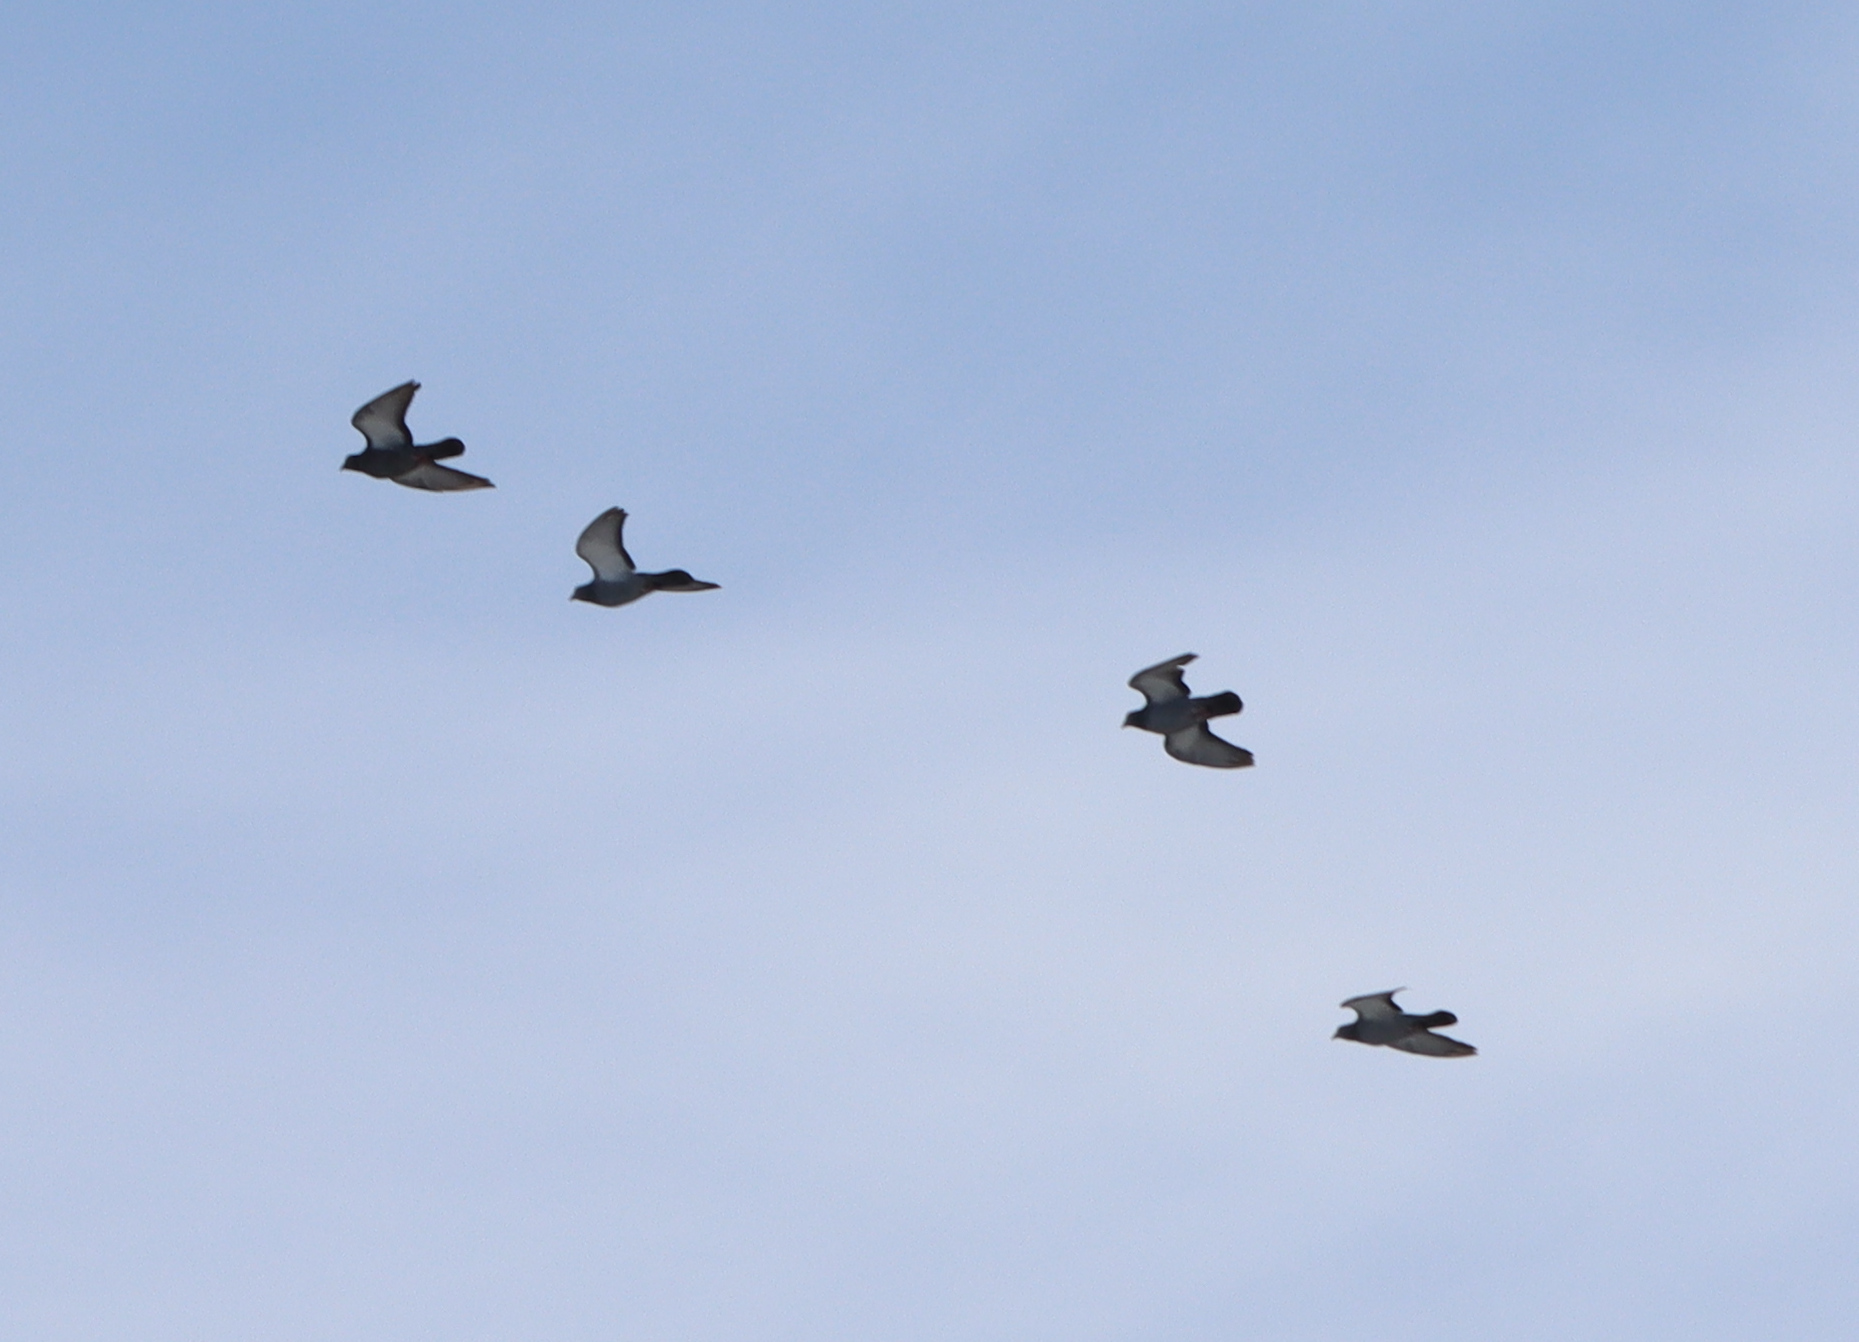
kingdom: Animalia
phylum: Chordata
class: Aves
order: Columbiformes
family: Columbidae
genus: Columba
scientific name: Columba livia
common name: Rock pigeon
